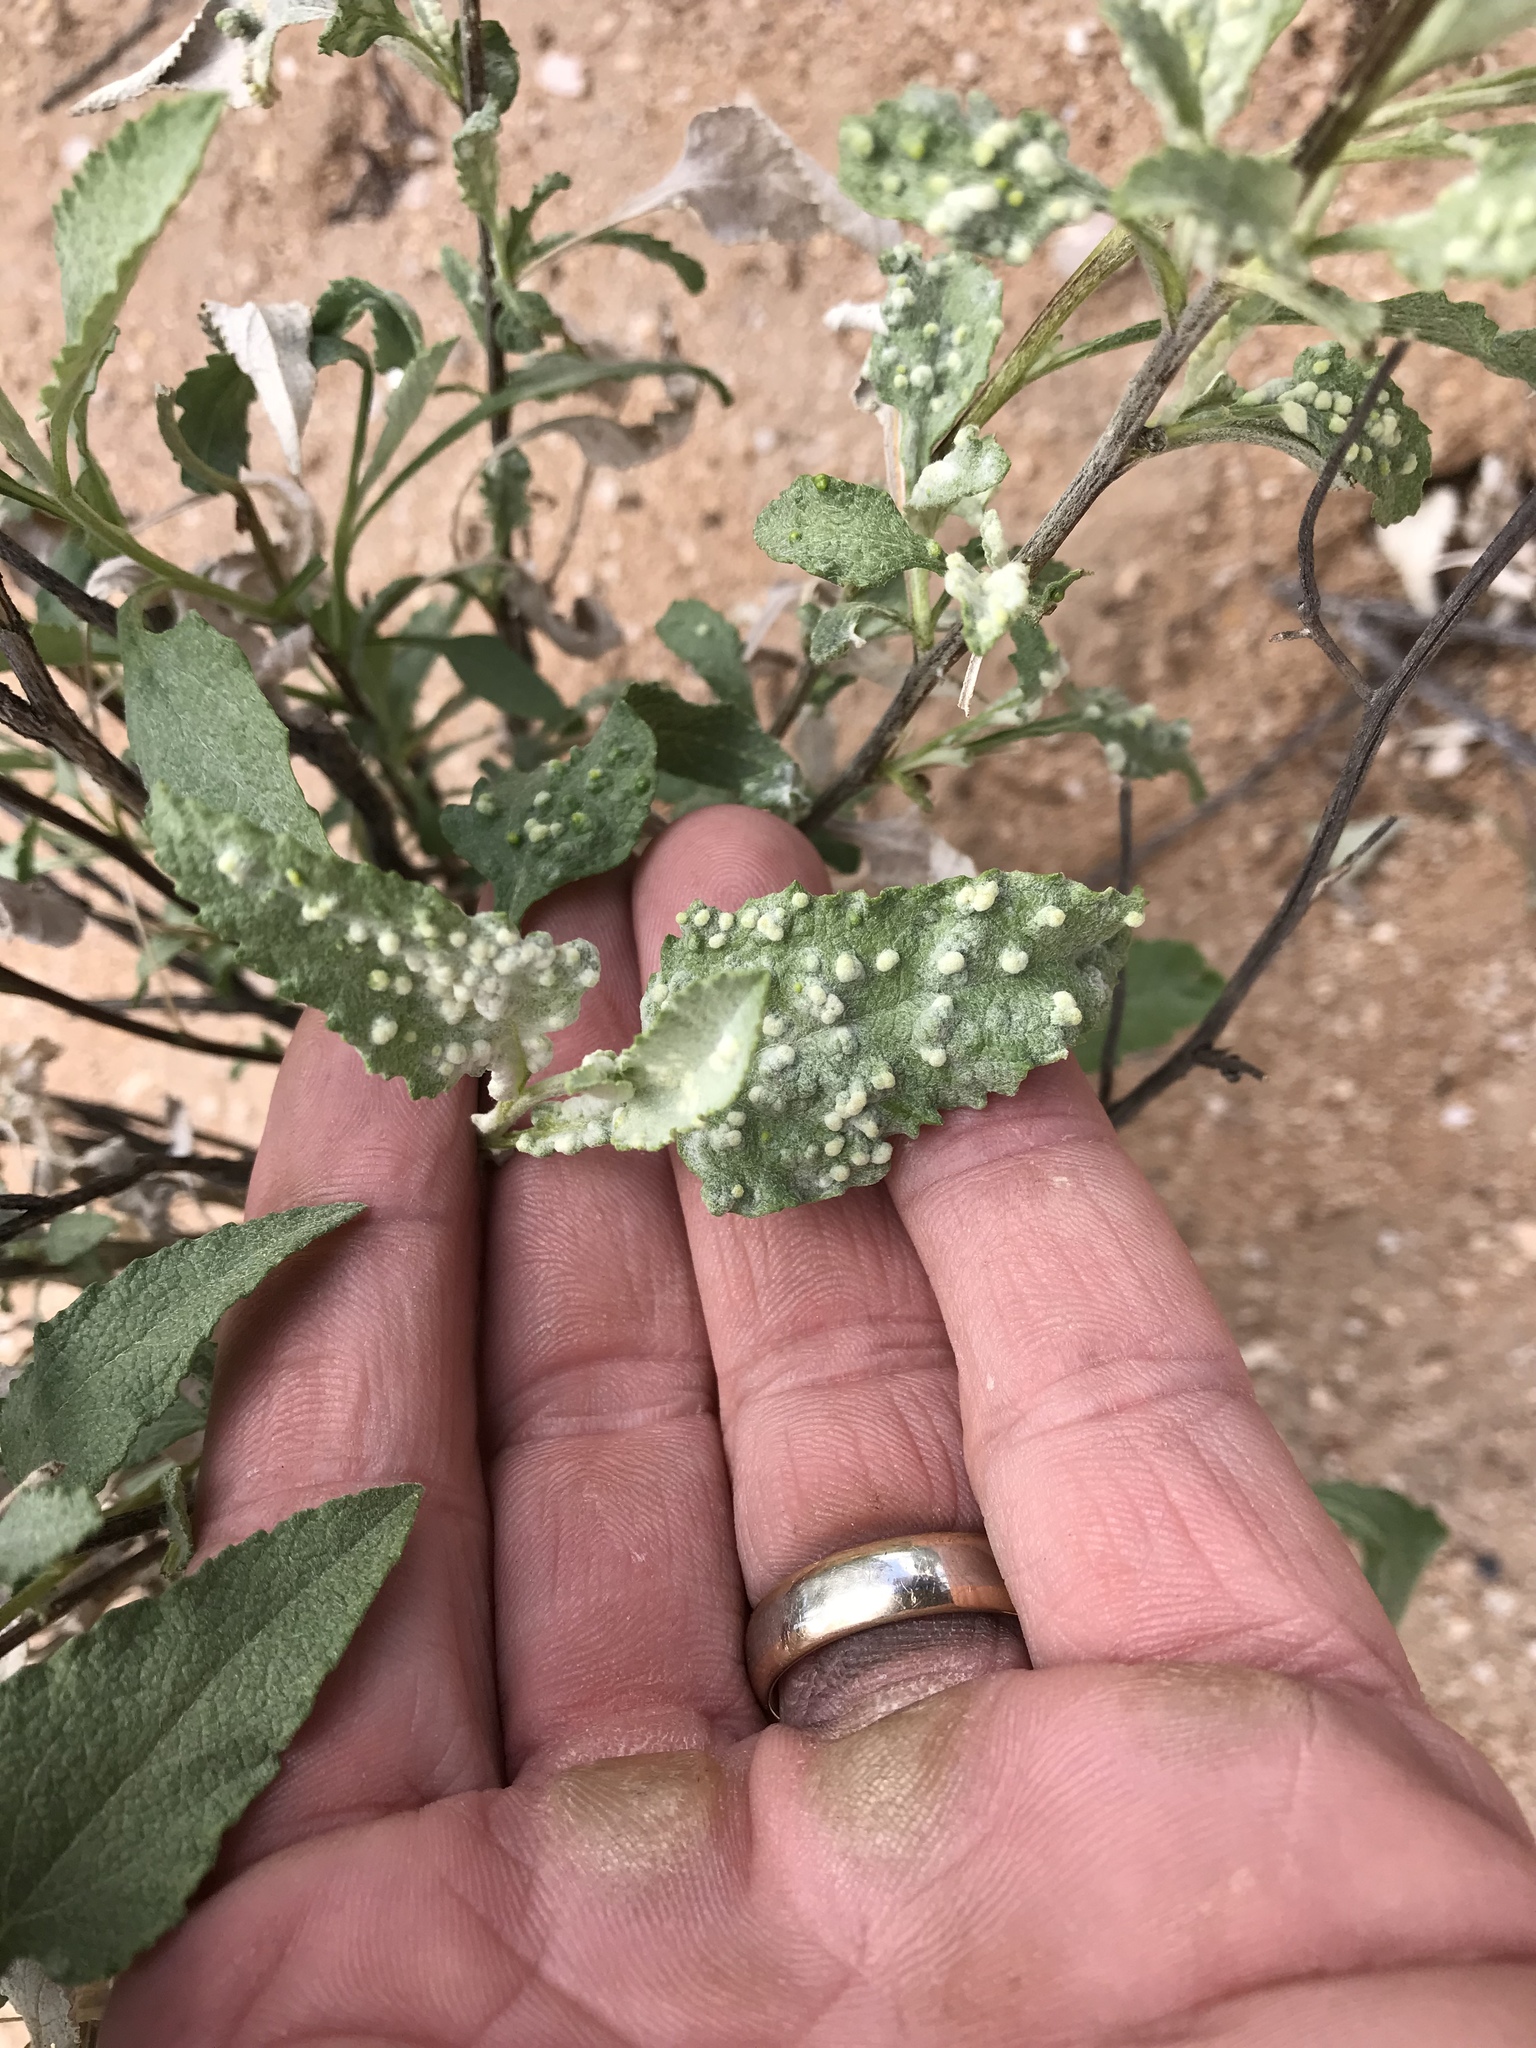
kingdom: Animalia
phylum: Arthropoda
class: Arachnida
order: Trombidiformes
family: Eriophyidae
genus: Aceria
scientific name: Aceria
